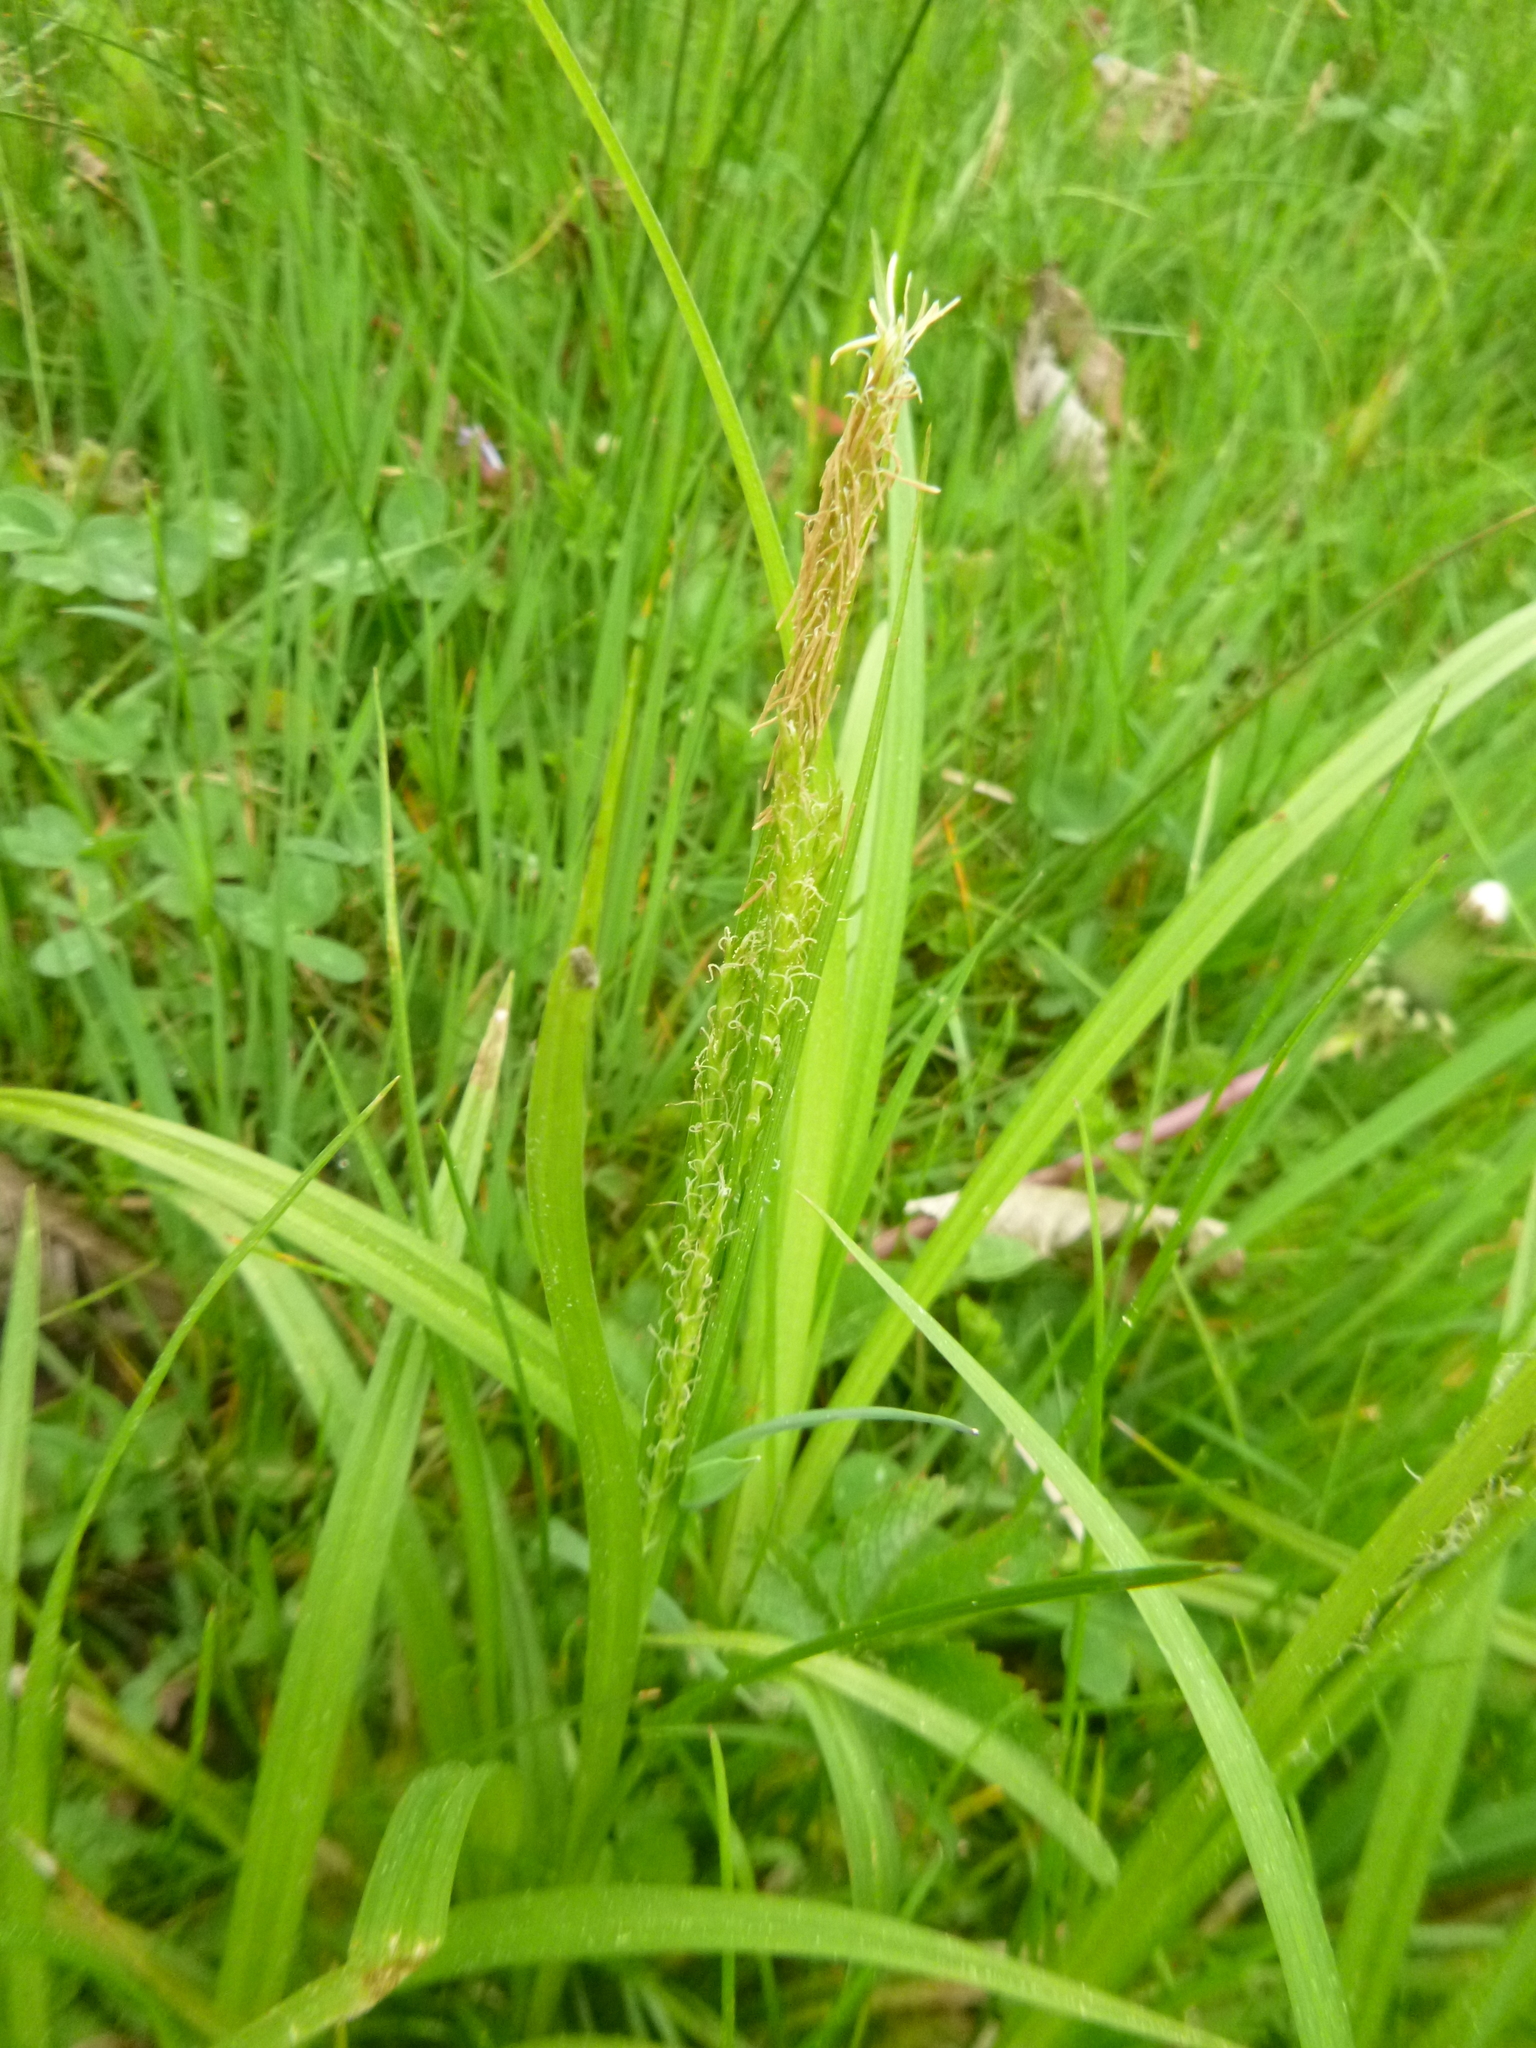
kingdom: Plantae
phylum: Tracheophyta
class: Liliopsida
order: Poales
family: Cyperaceae
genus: Carex
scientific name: Carex sylvatica
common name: Wood-sedge
